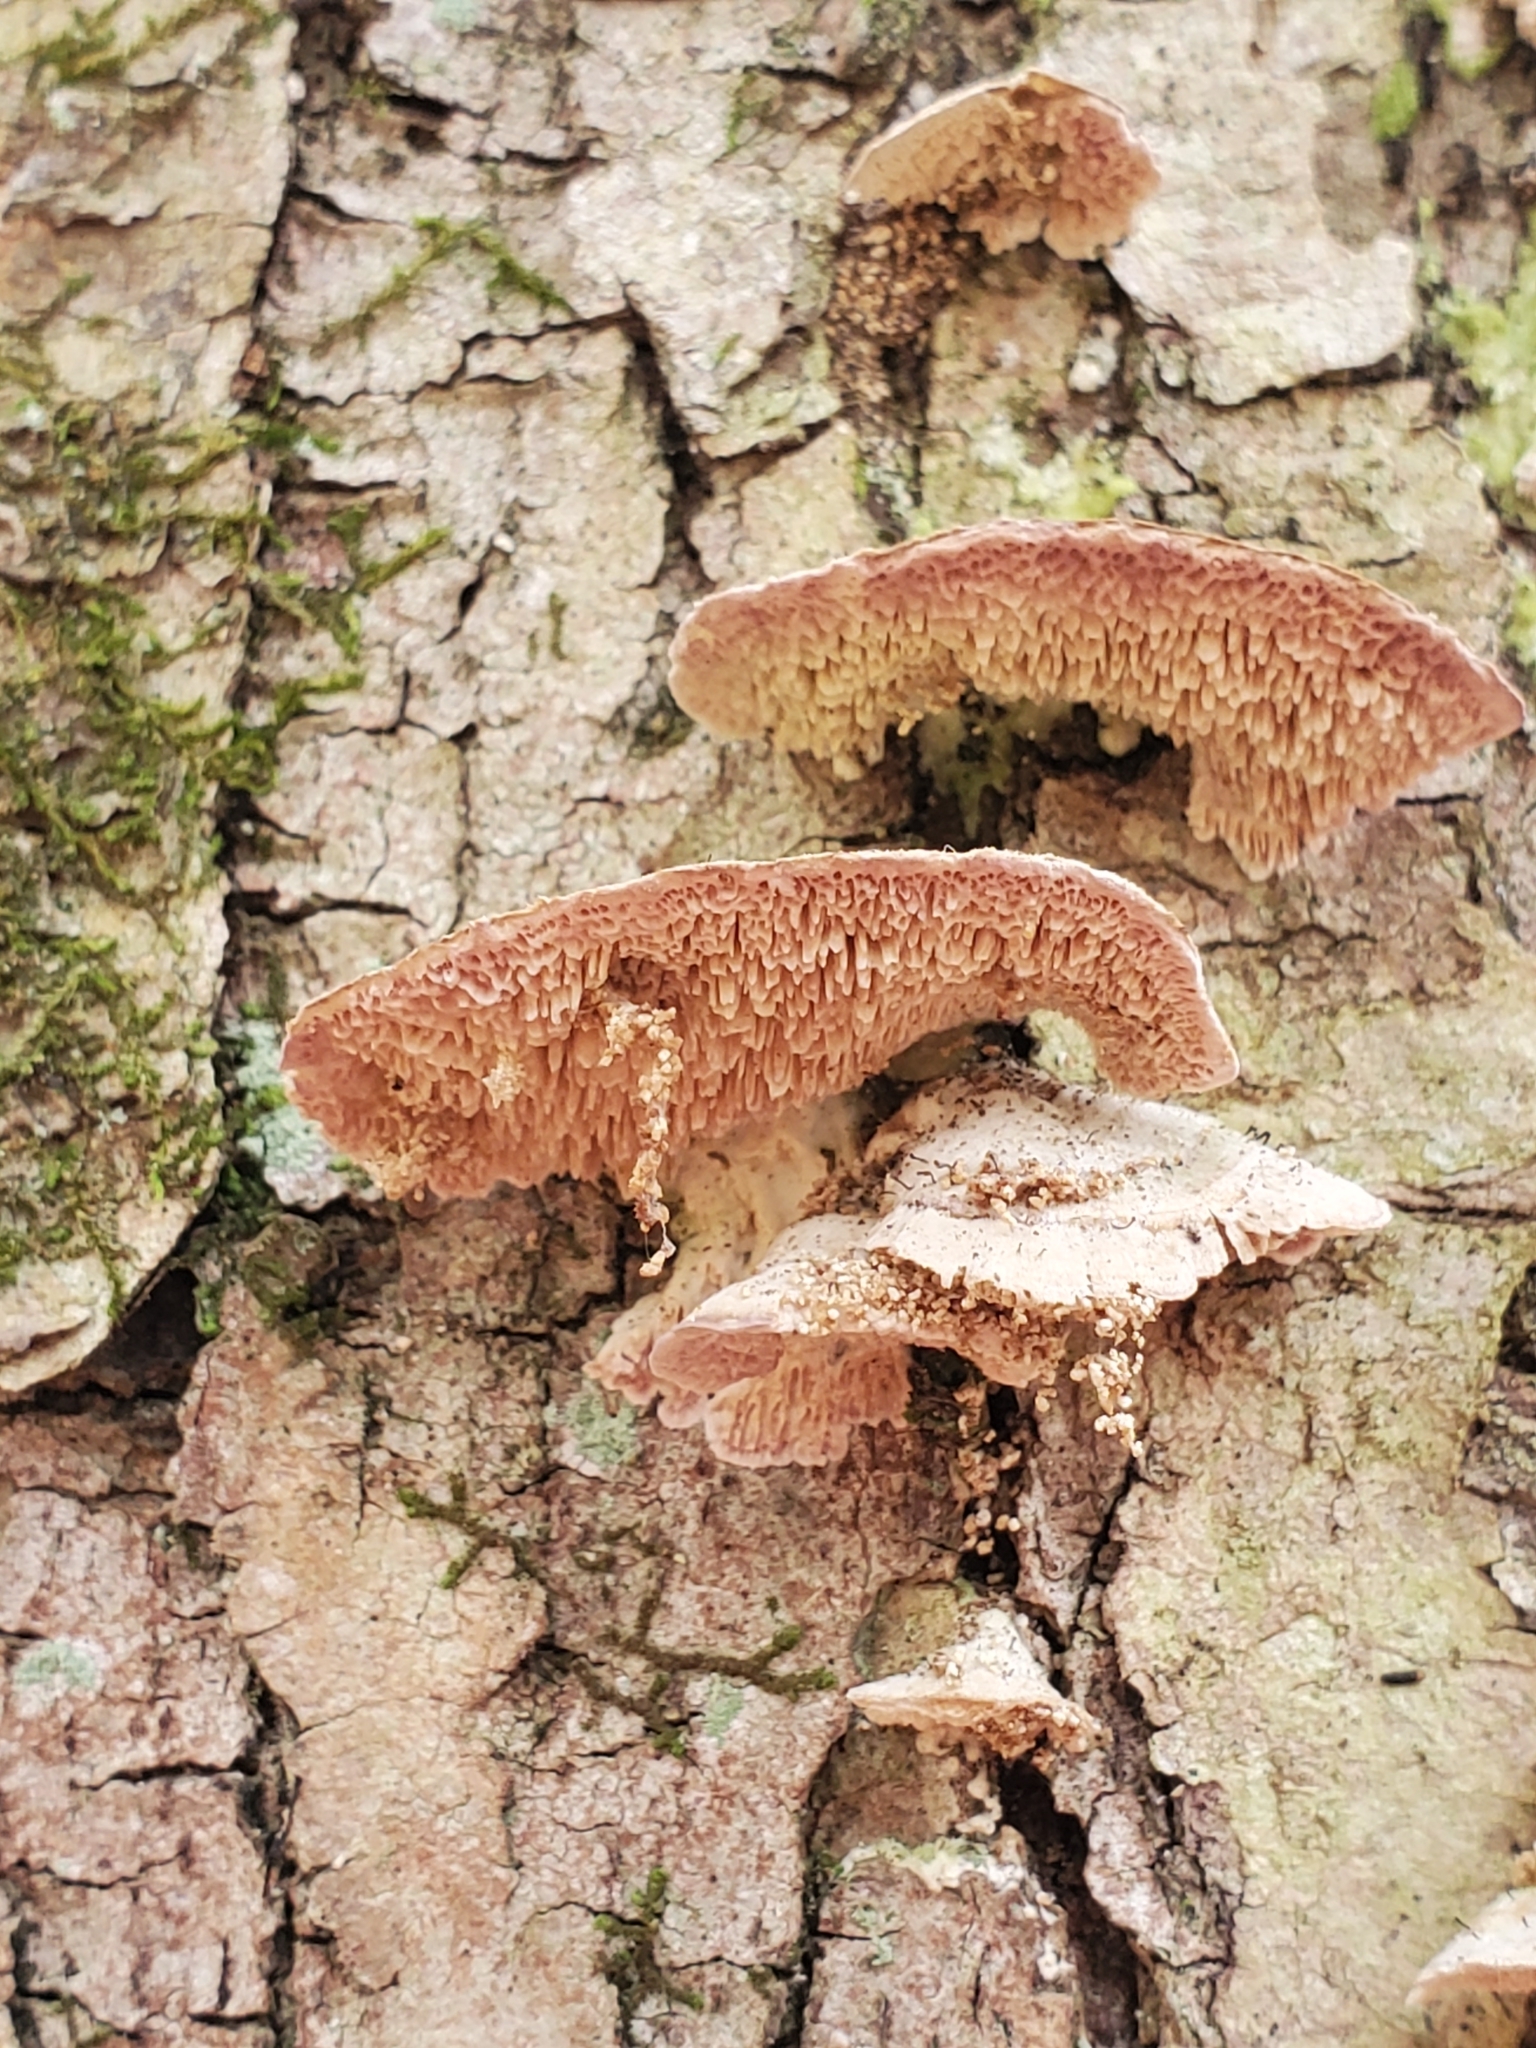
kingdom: Fungi
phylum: Ascomycota
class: Eurotiomycetes
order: Mycocaliciales
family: Mycocaliciaceae
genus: Phaeocalicium
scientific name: Phaeocalicium polyporaeum
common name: Fairy pins
